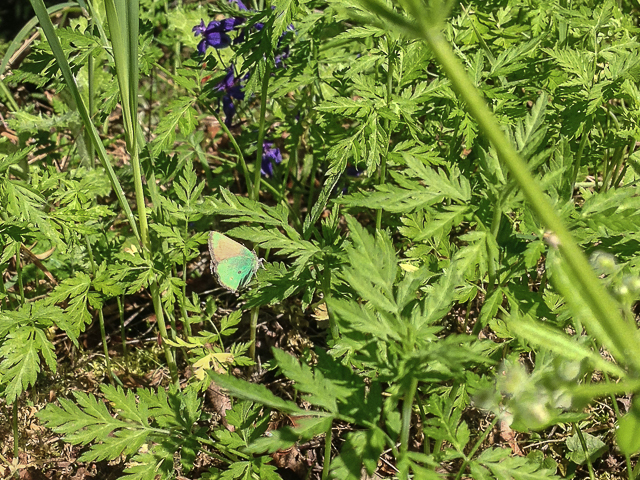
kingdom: Animalia
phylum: Arthropoda
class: Insecta
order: Lepidoptera
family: Lycaenidae
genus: Callophrys
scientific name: Callophrys dumetorum
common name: Bramble hairstreak
